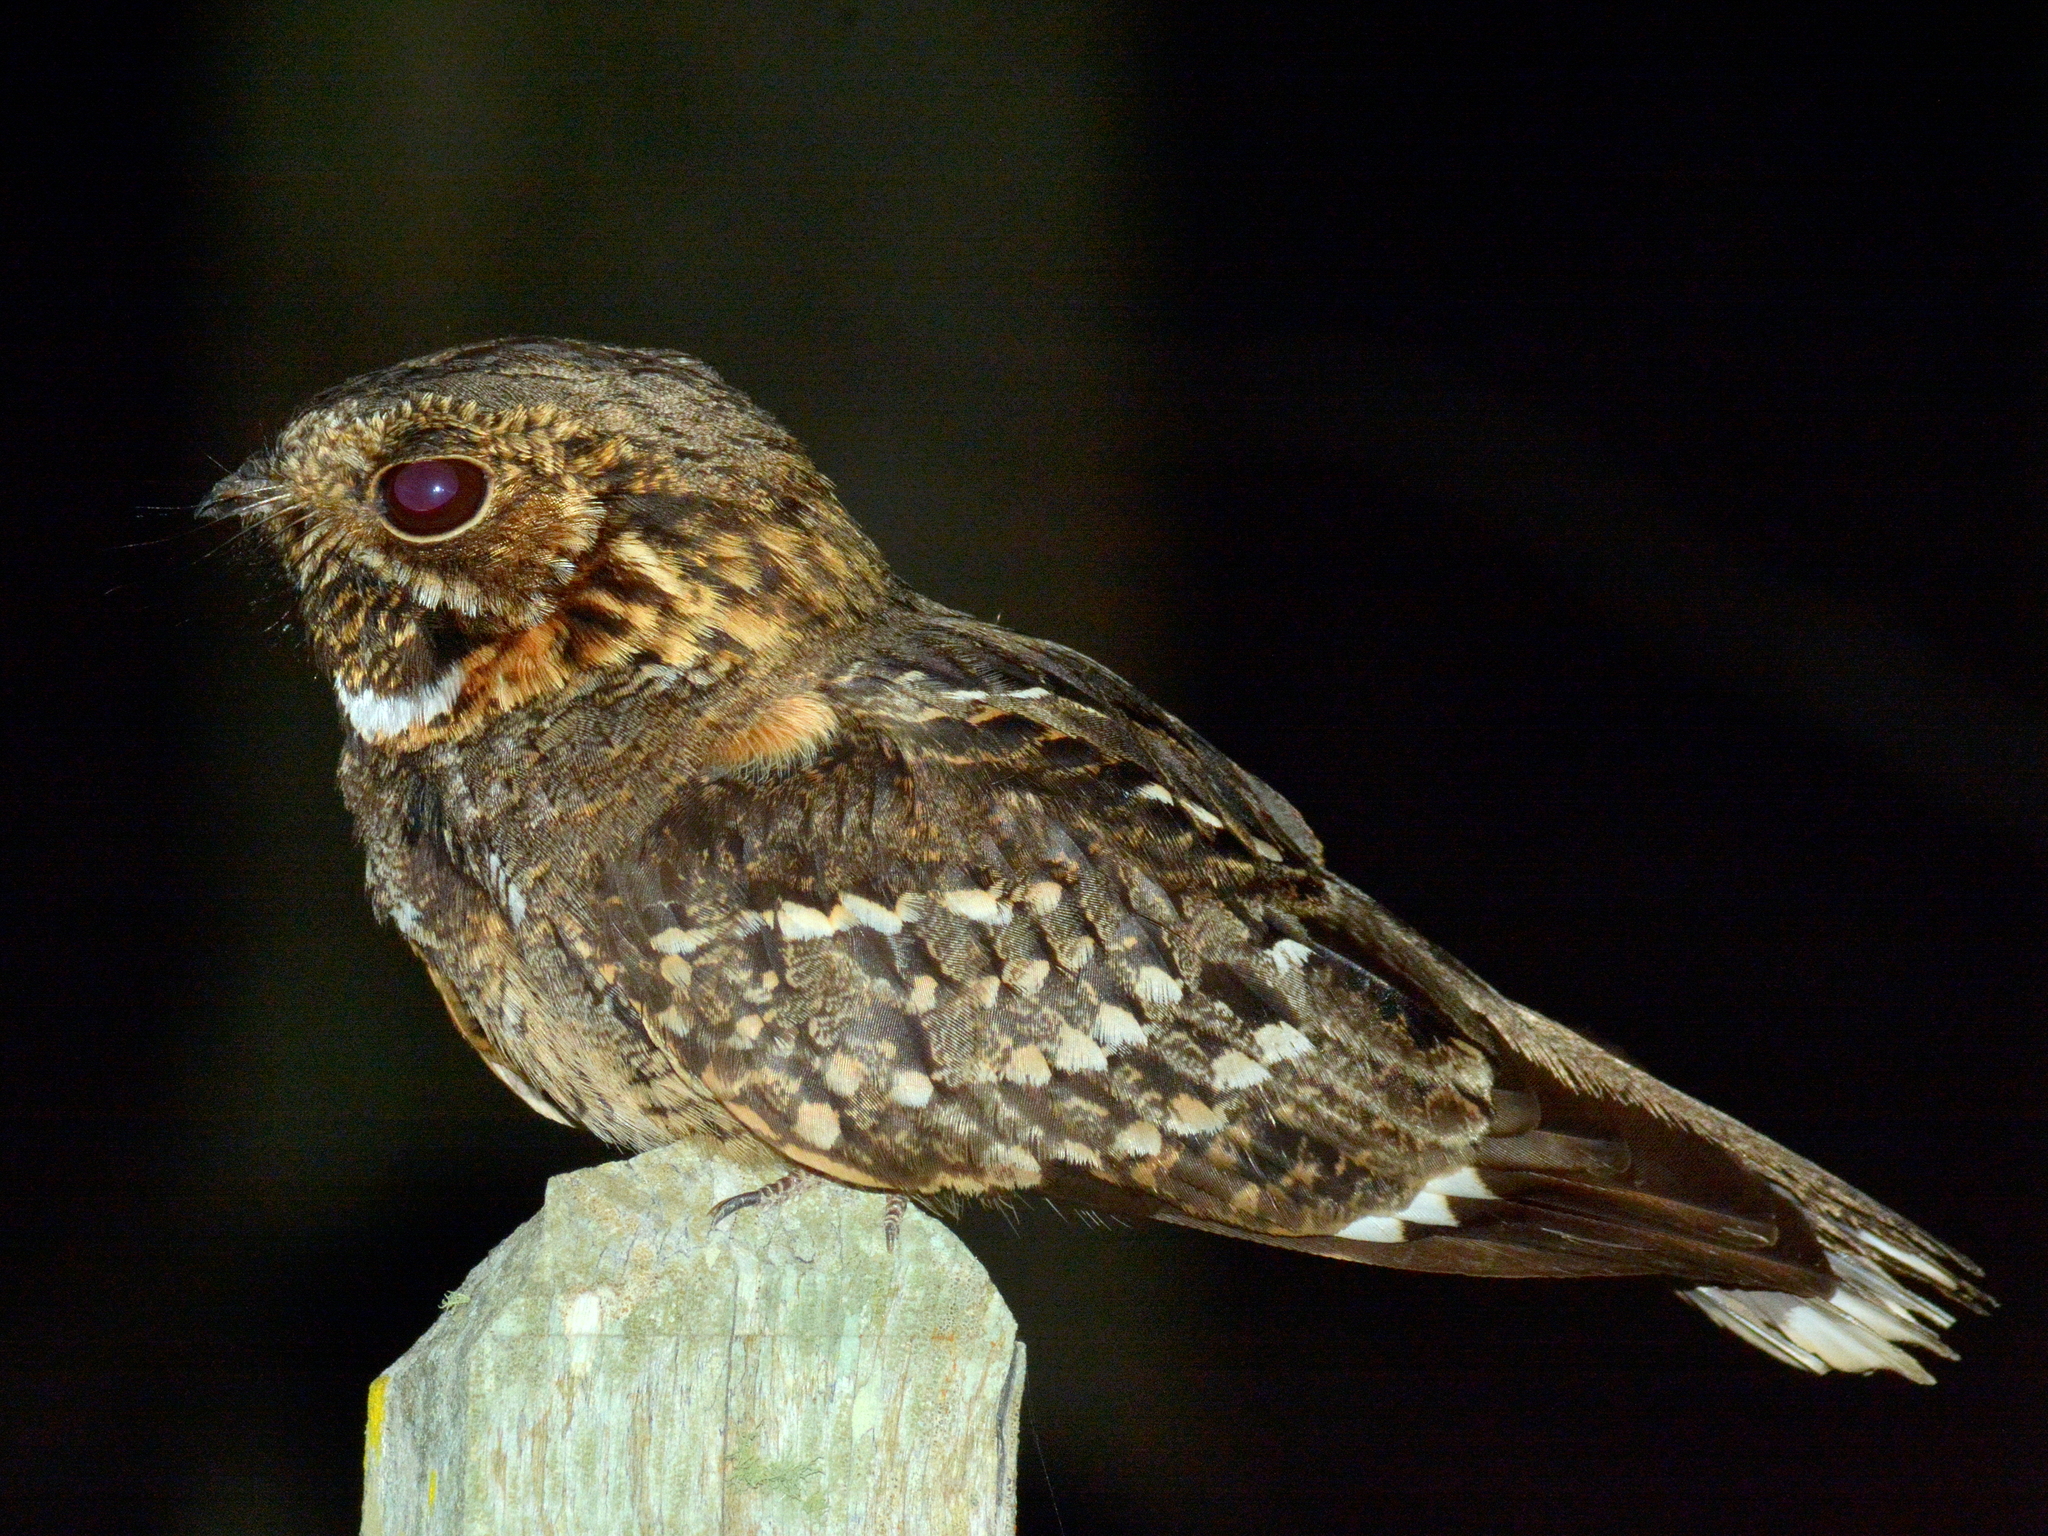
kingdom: Animalia
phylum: Chordata
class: Aves
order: Caprimulgiformes
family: Caprimulgidae
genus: Setopagis
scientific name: Setopagis parvula
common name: Little nightjar
